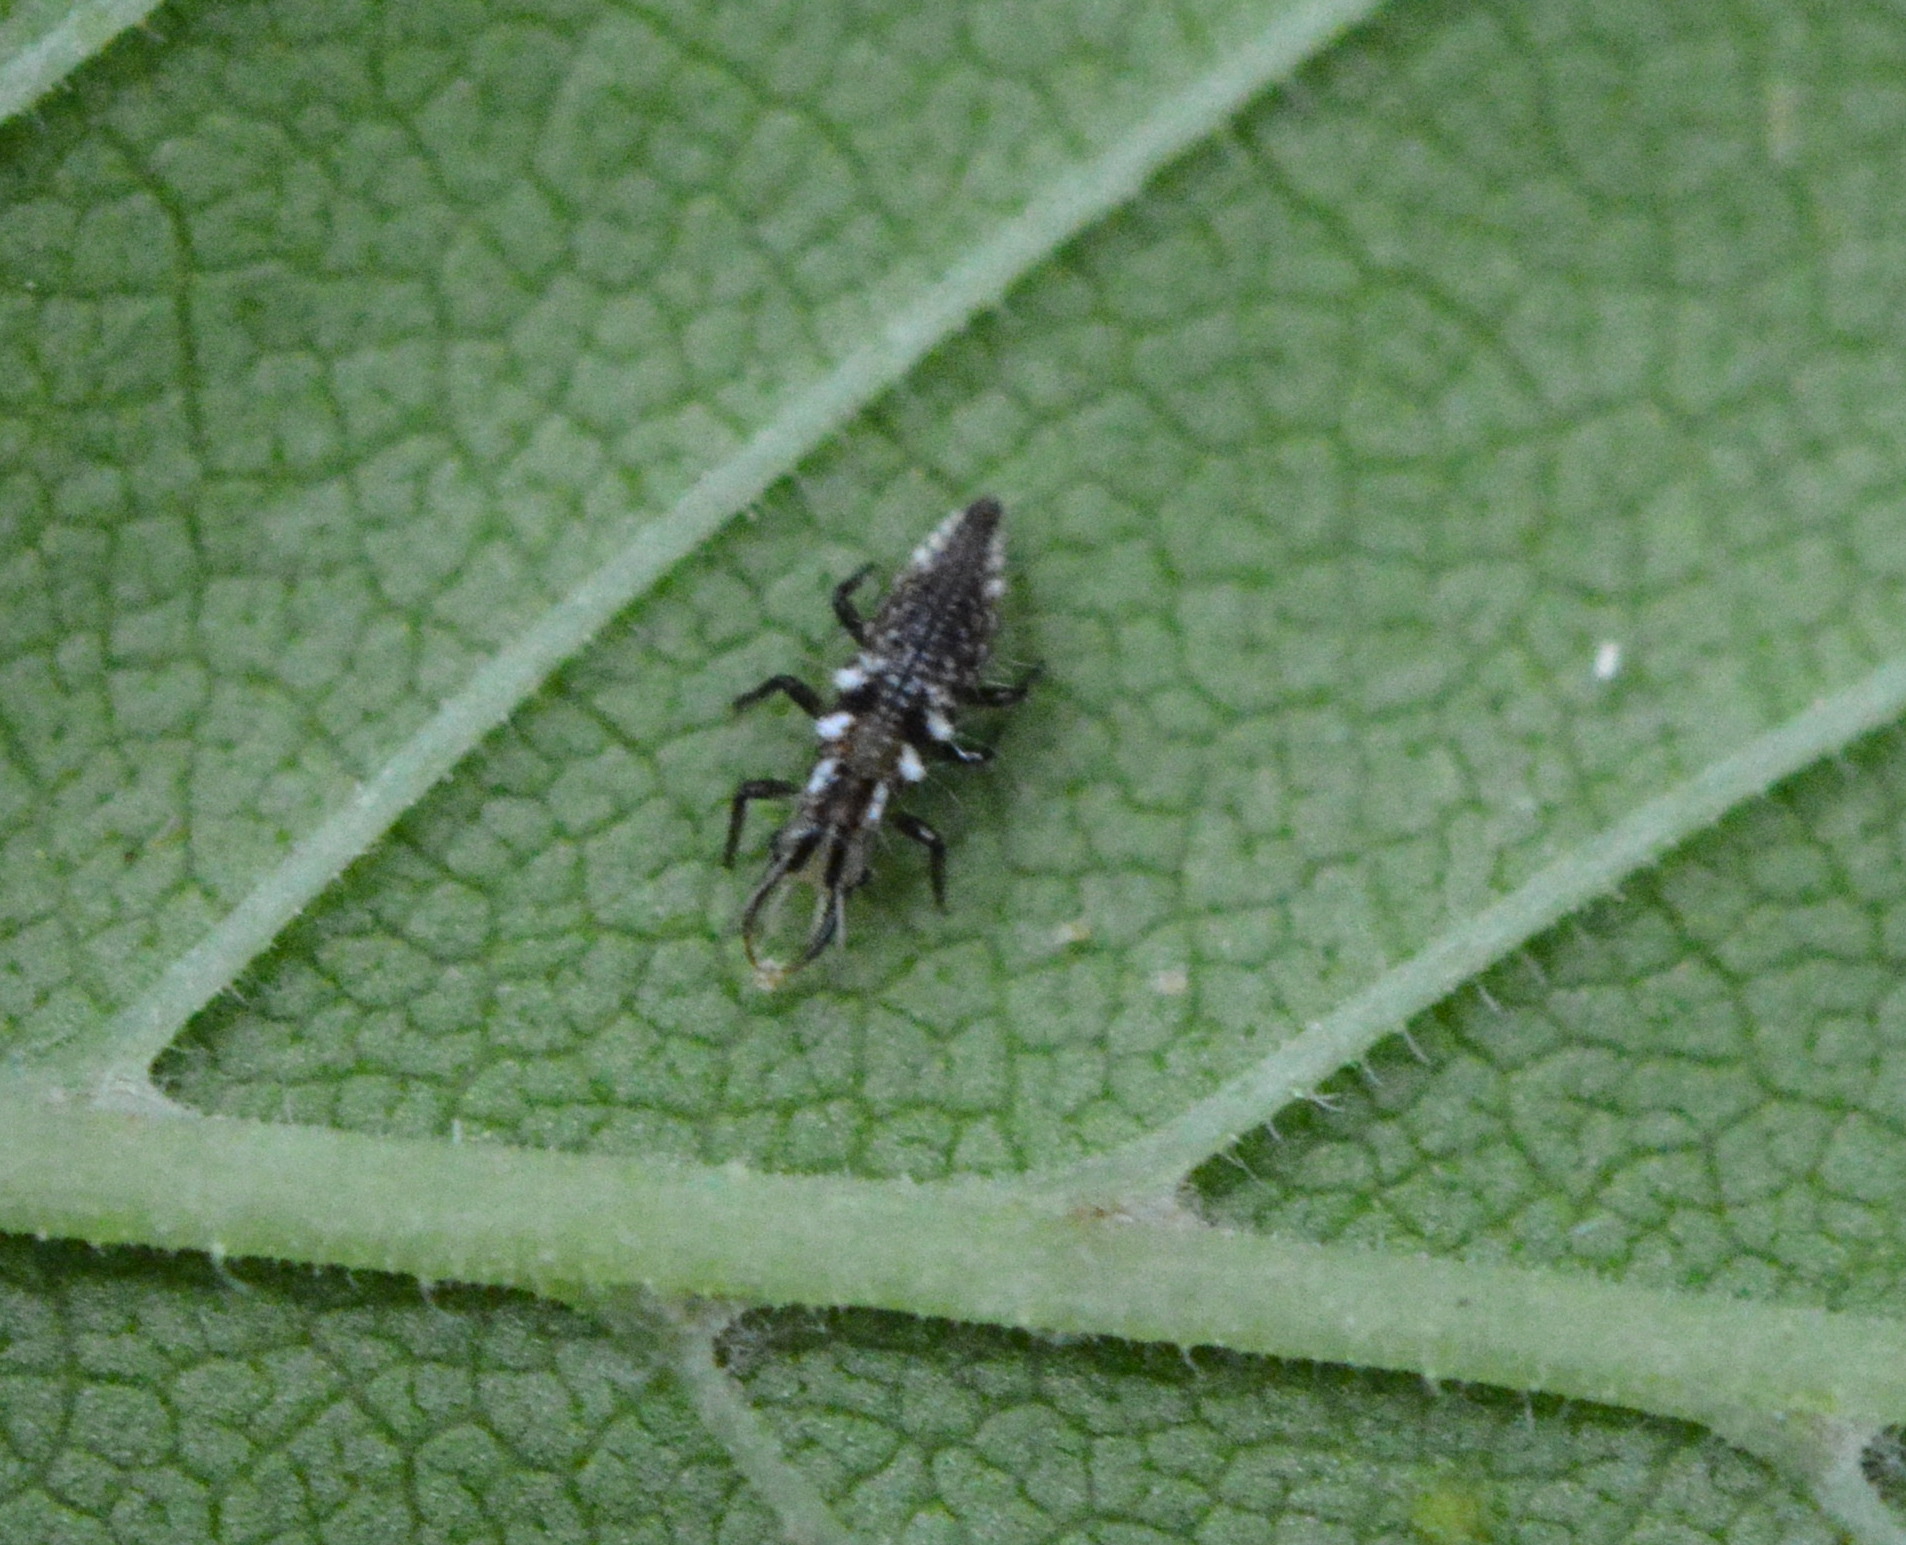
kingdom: Animalia
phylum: Arthropoda
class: Insecta
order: Neuroptera
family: Chrysopidae
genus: Chrysoperla
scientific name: Chrysoperla rufilabris
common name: Red-lipped green lacewing
